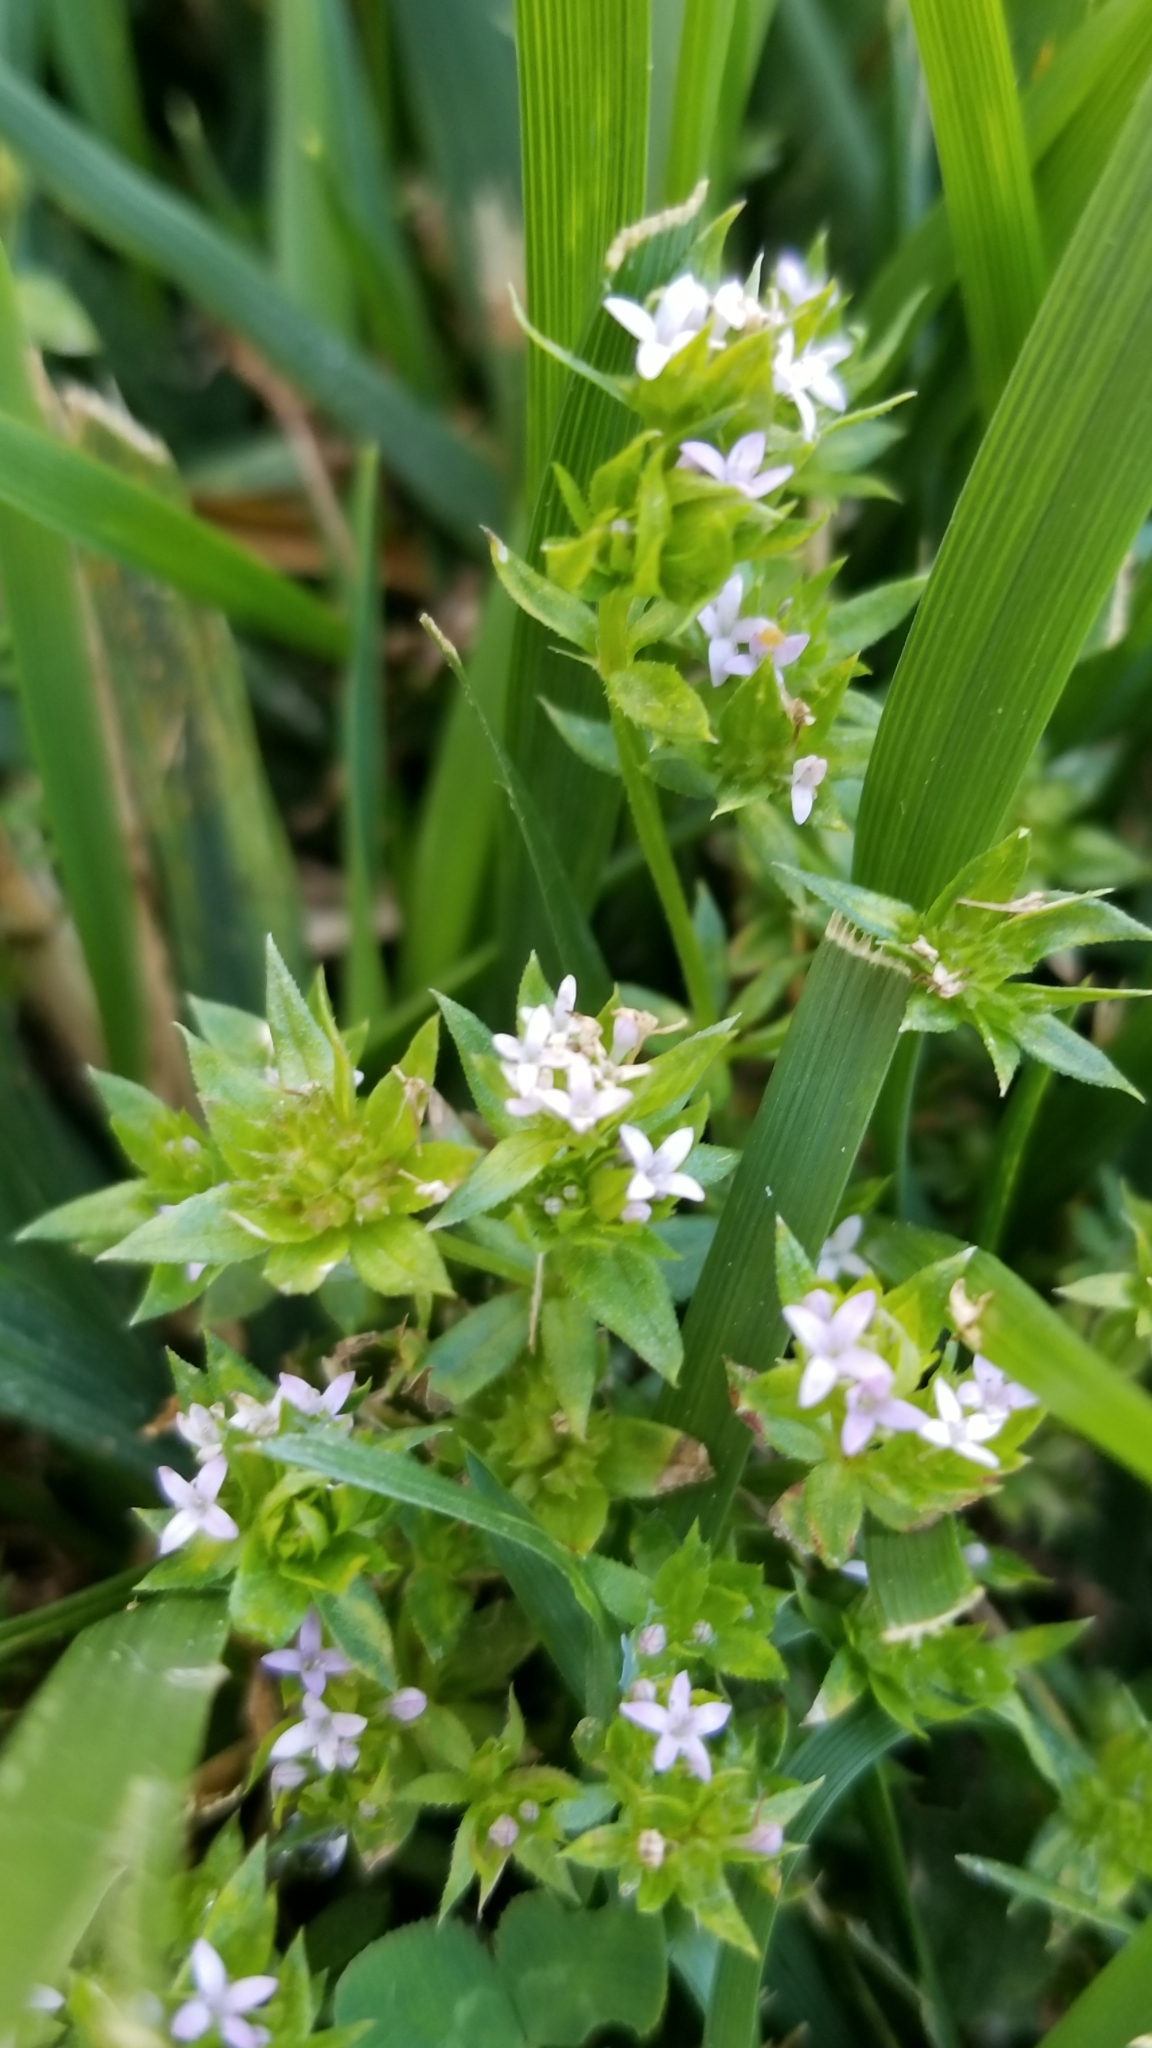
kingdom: Plantae
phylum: Tracheophyta
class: Magnoliopsida
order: Gentianales
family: Rubiaceae
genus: Sherardia
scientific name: Sherardia arvensis
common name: Field madder
